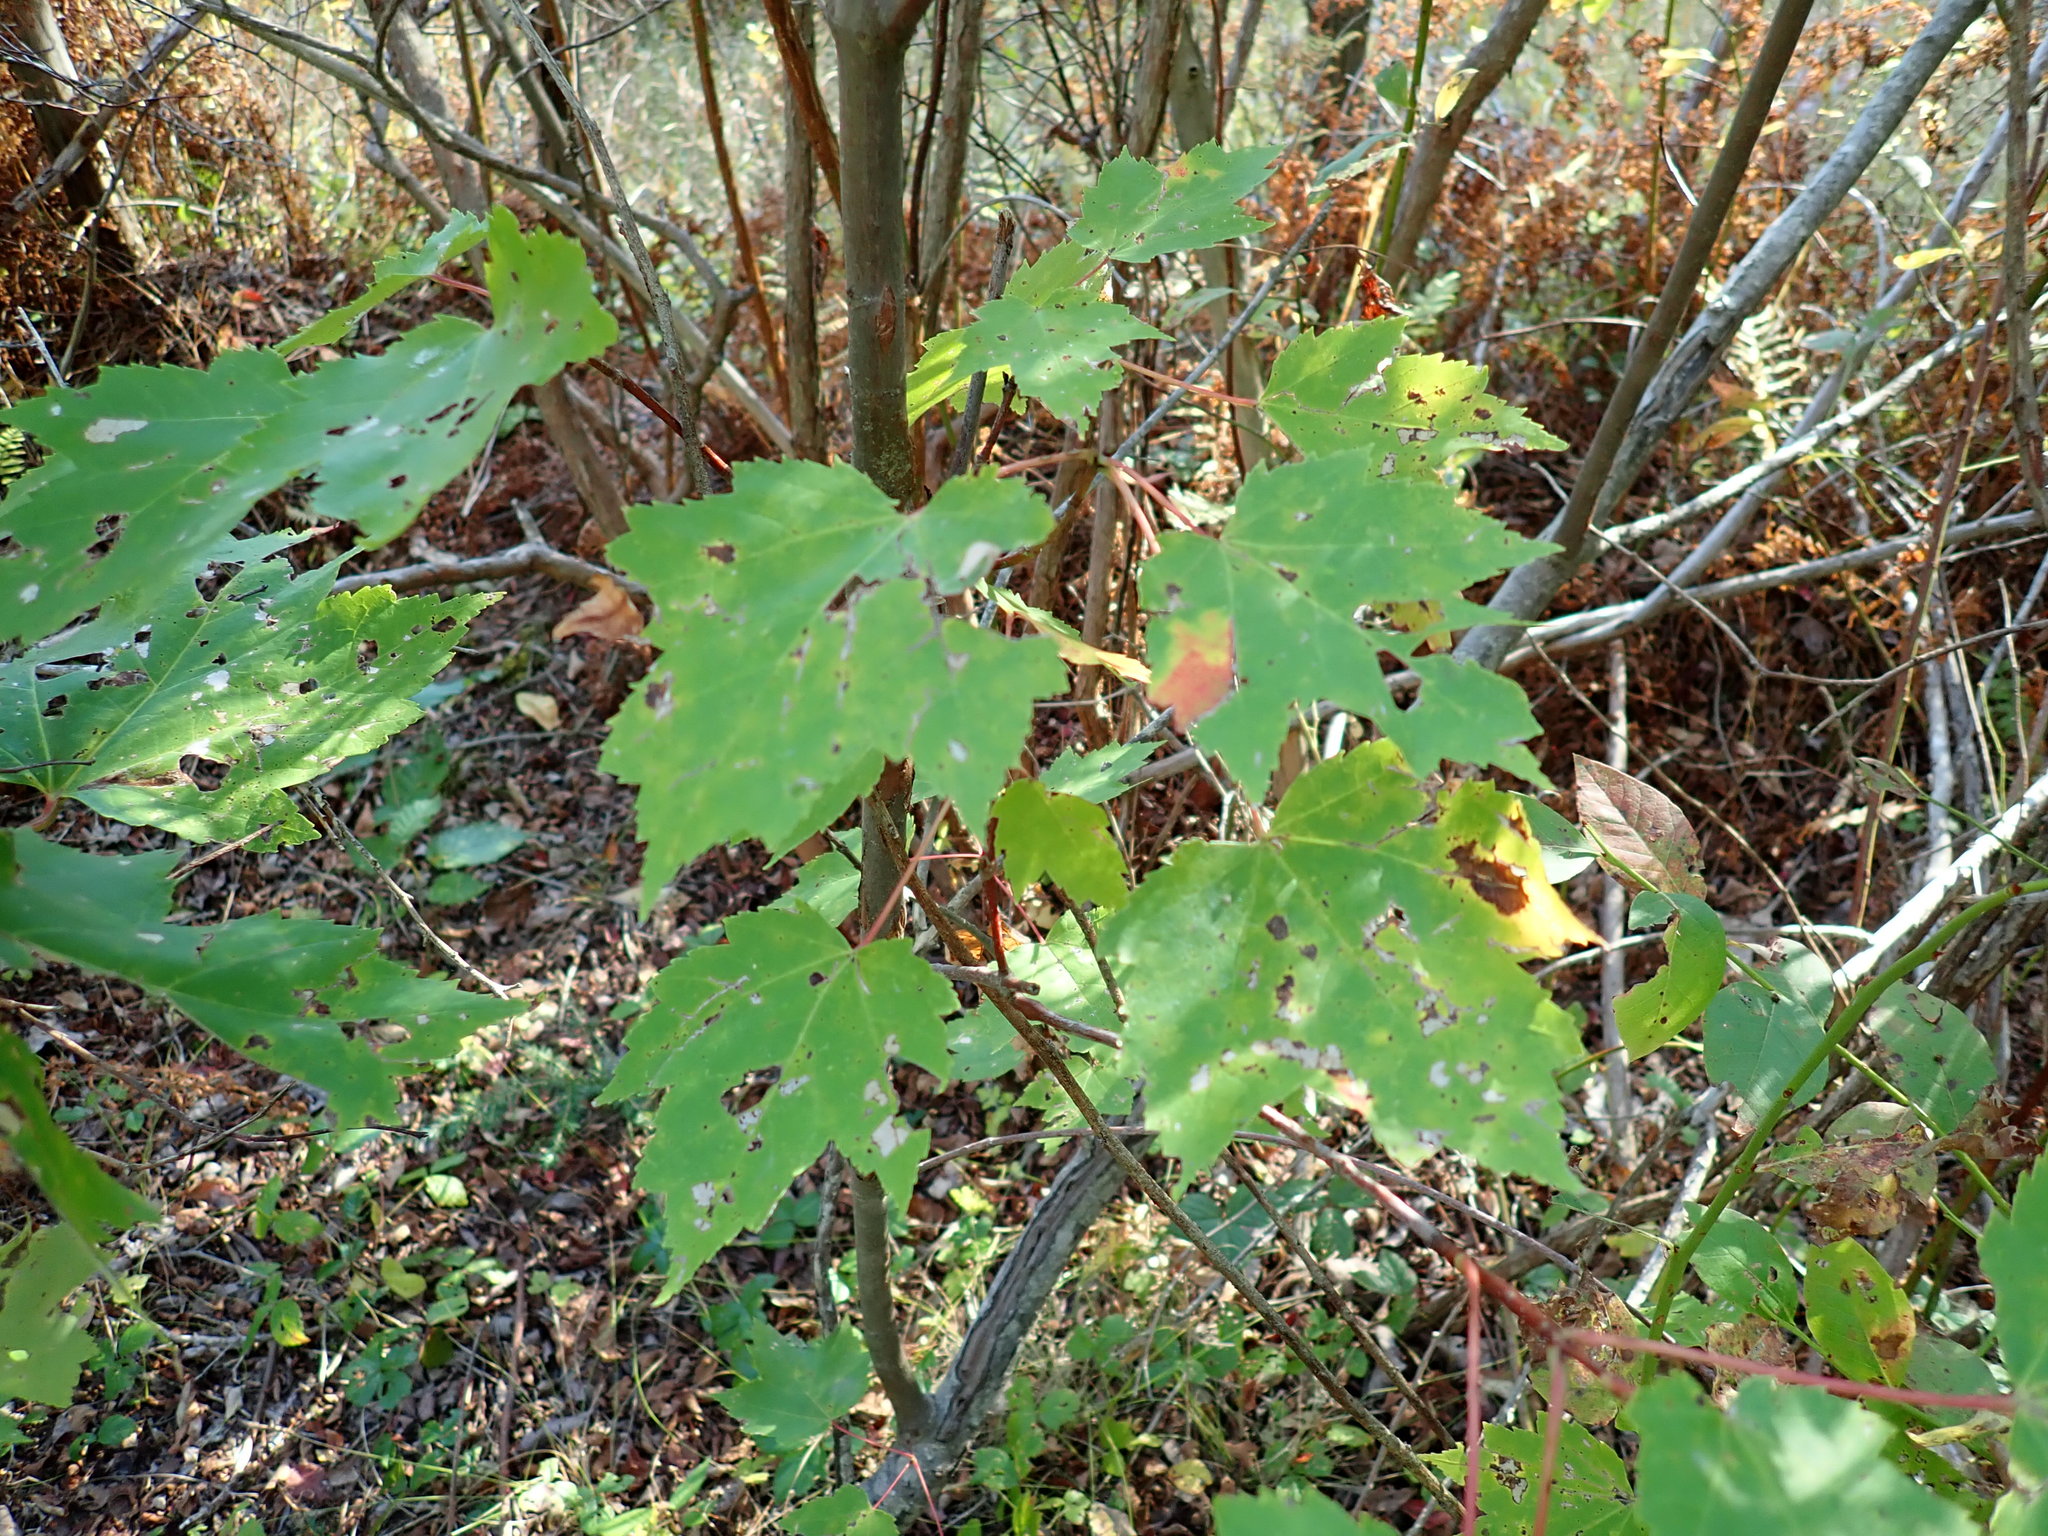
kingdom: Plantae
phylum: Tracheophyta
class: Magnoliopsida
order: Sapindales
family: Sapindaceae
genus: Acer
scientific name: Acer rubrum
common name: Red maple
